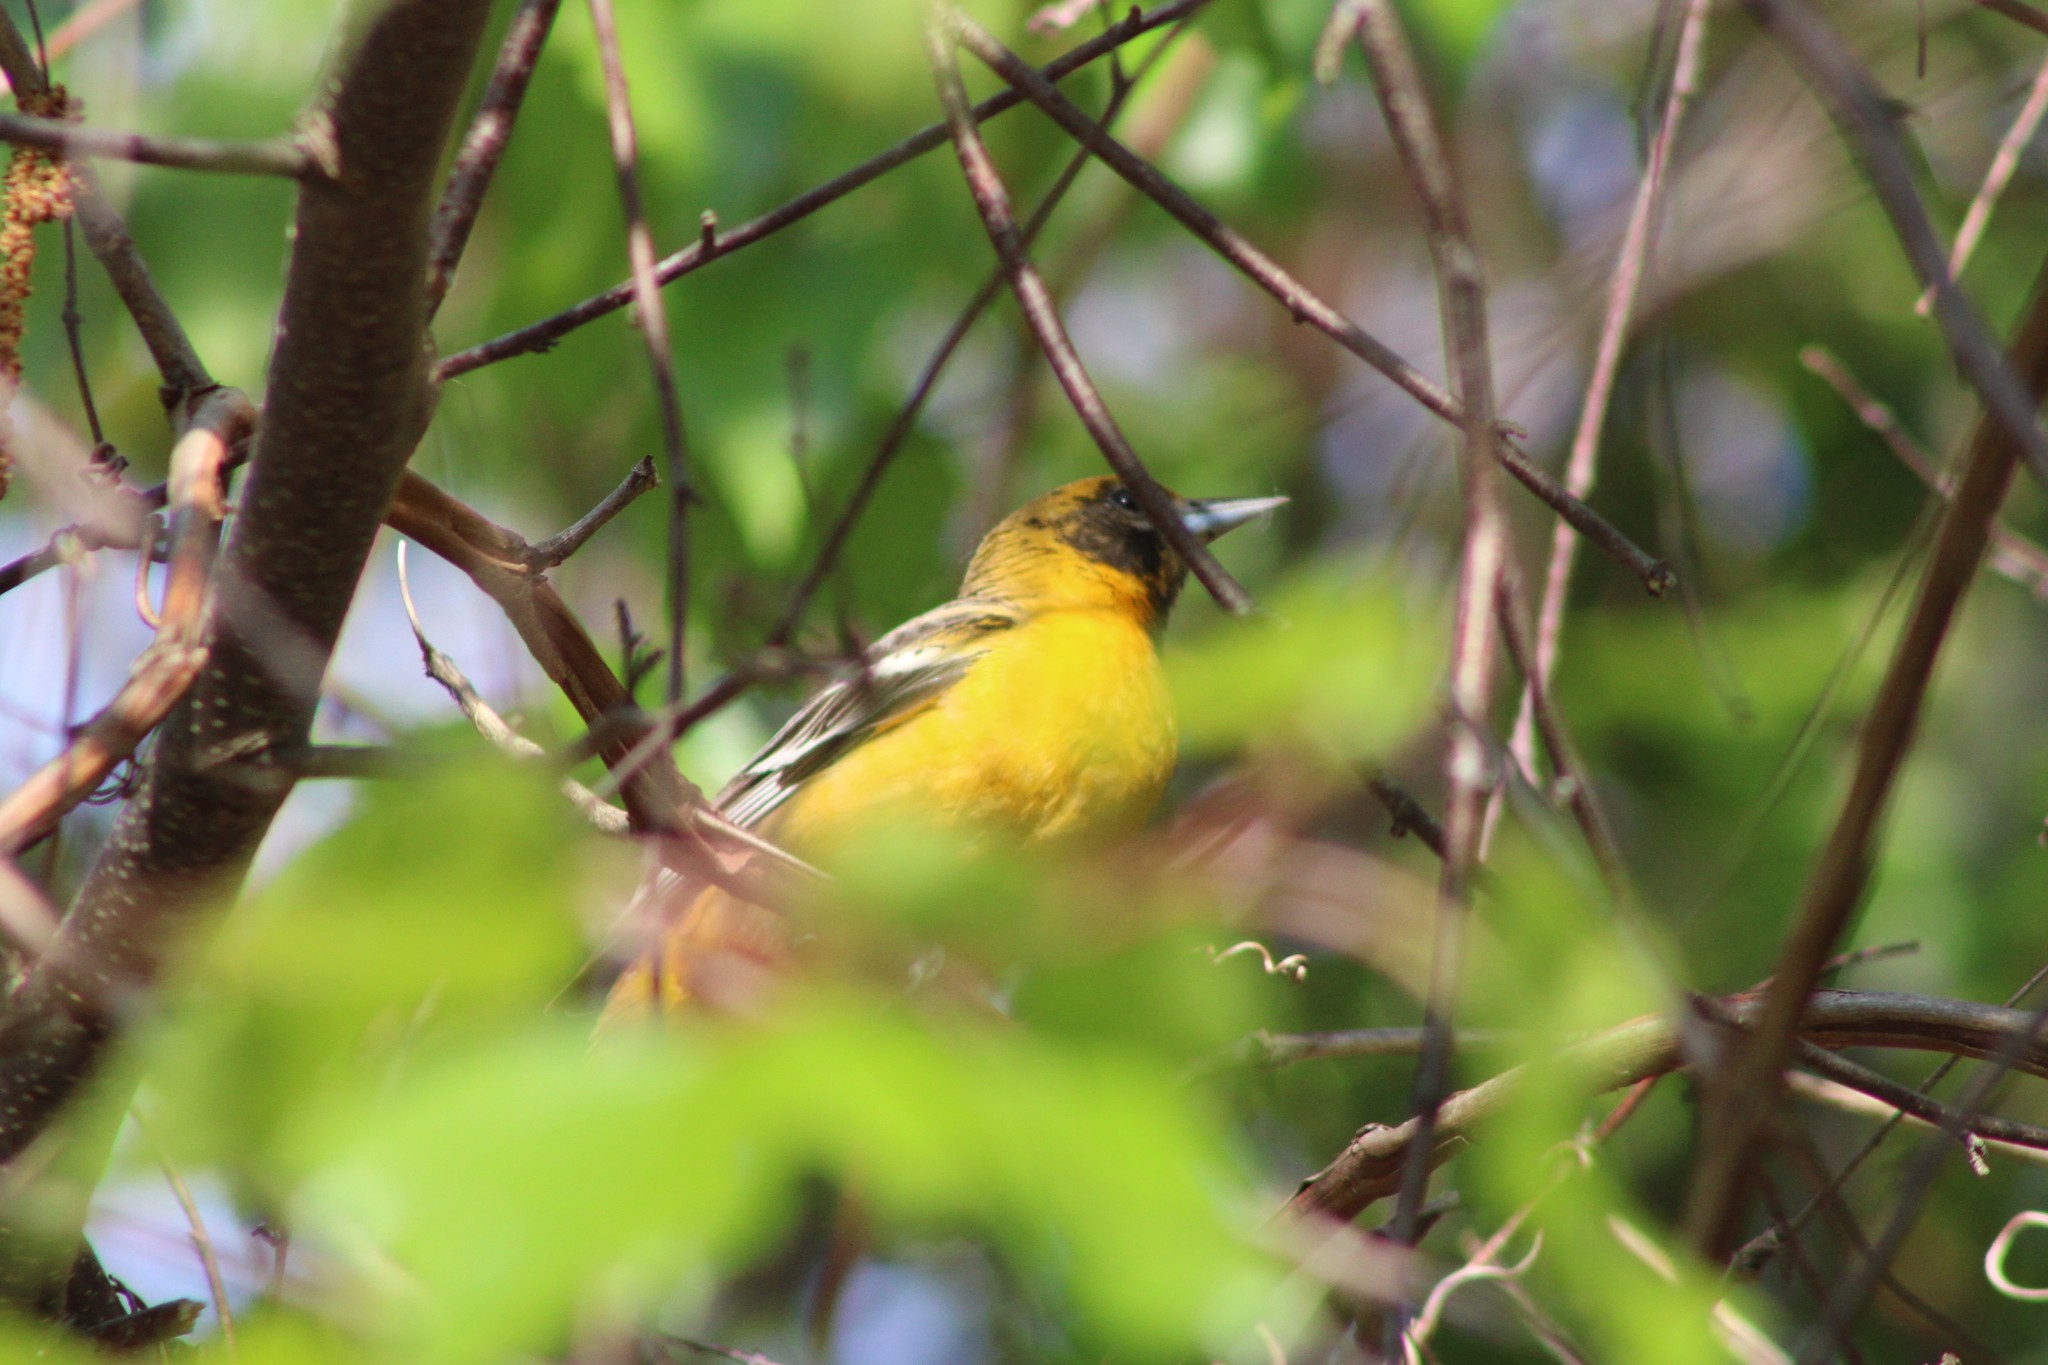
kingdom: Animalia
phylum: Chordata
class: Aves
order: Passeriformes
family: Icteridae
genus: Icterus
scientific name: Icterus galbula
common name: Baltimore oriole
